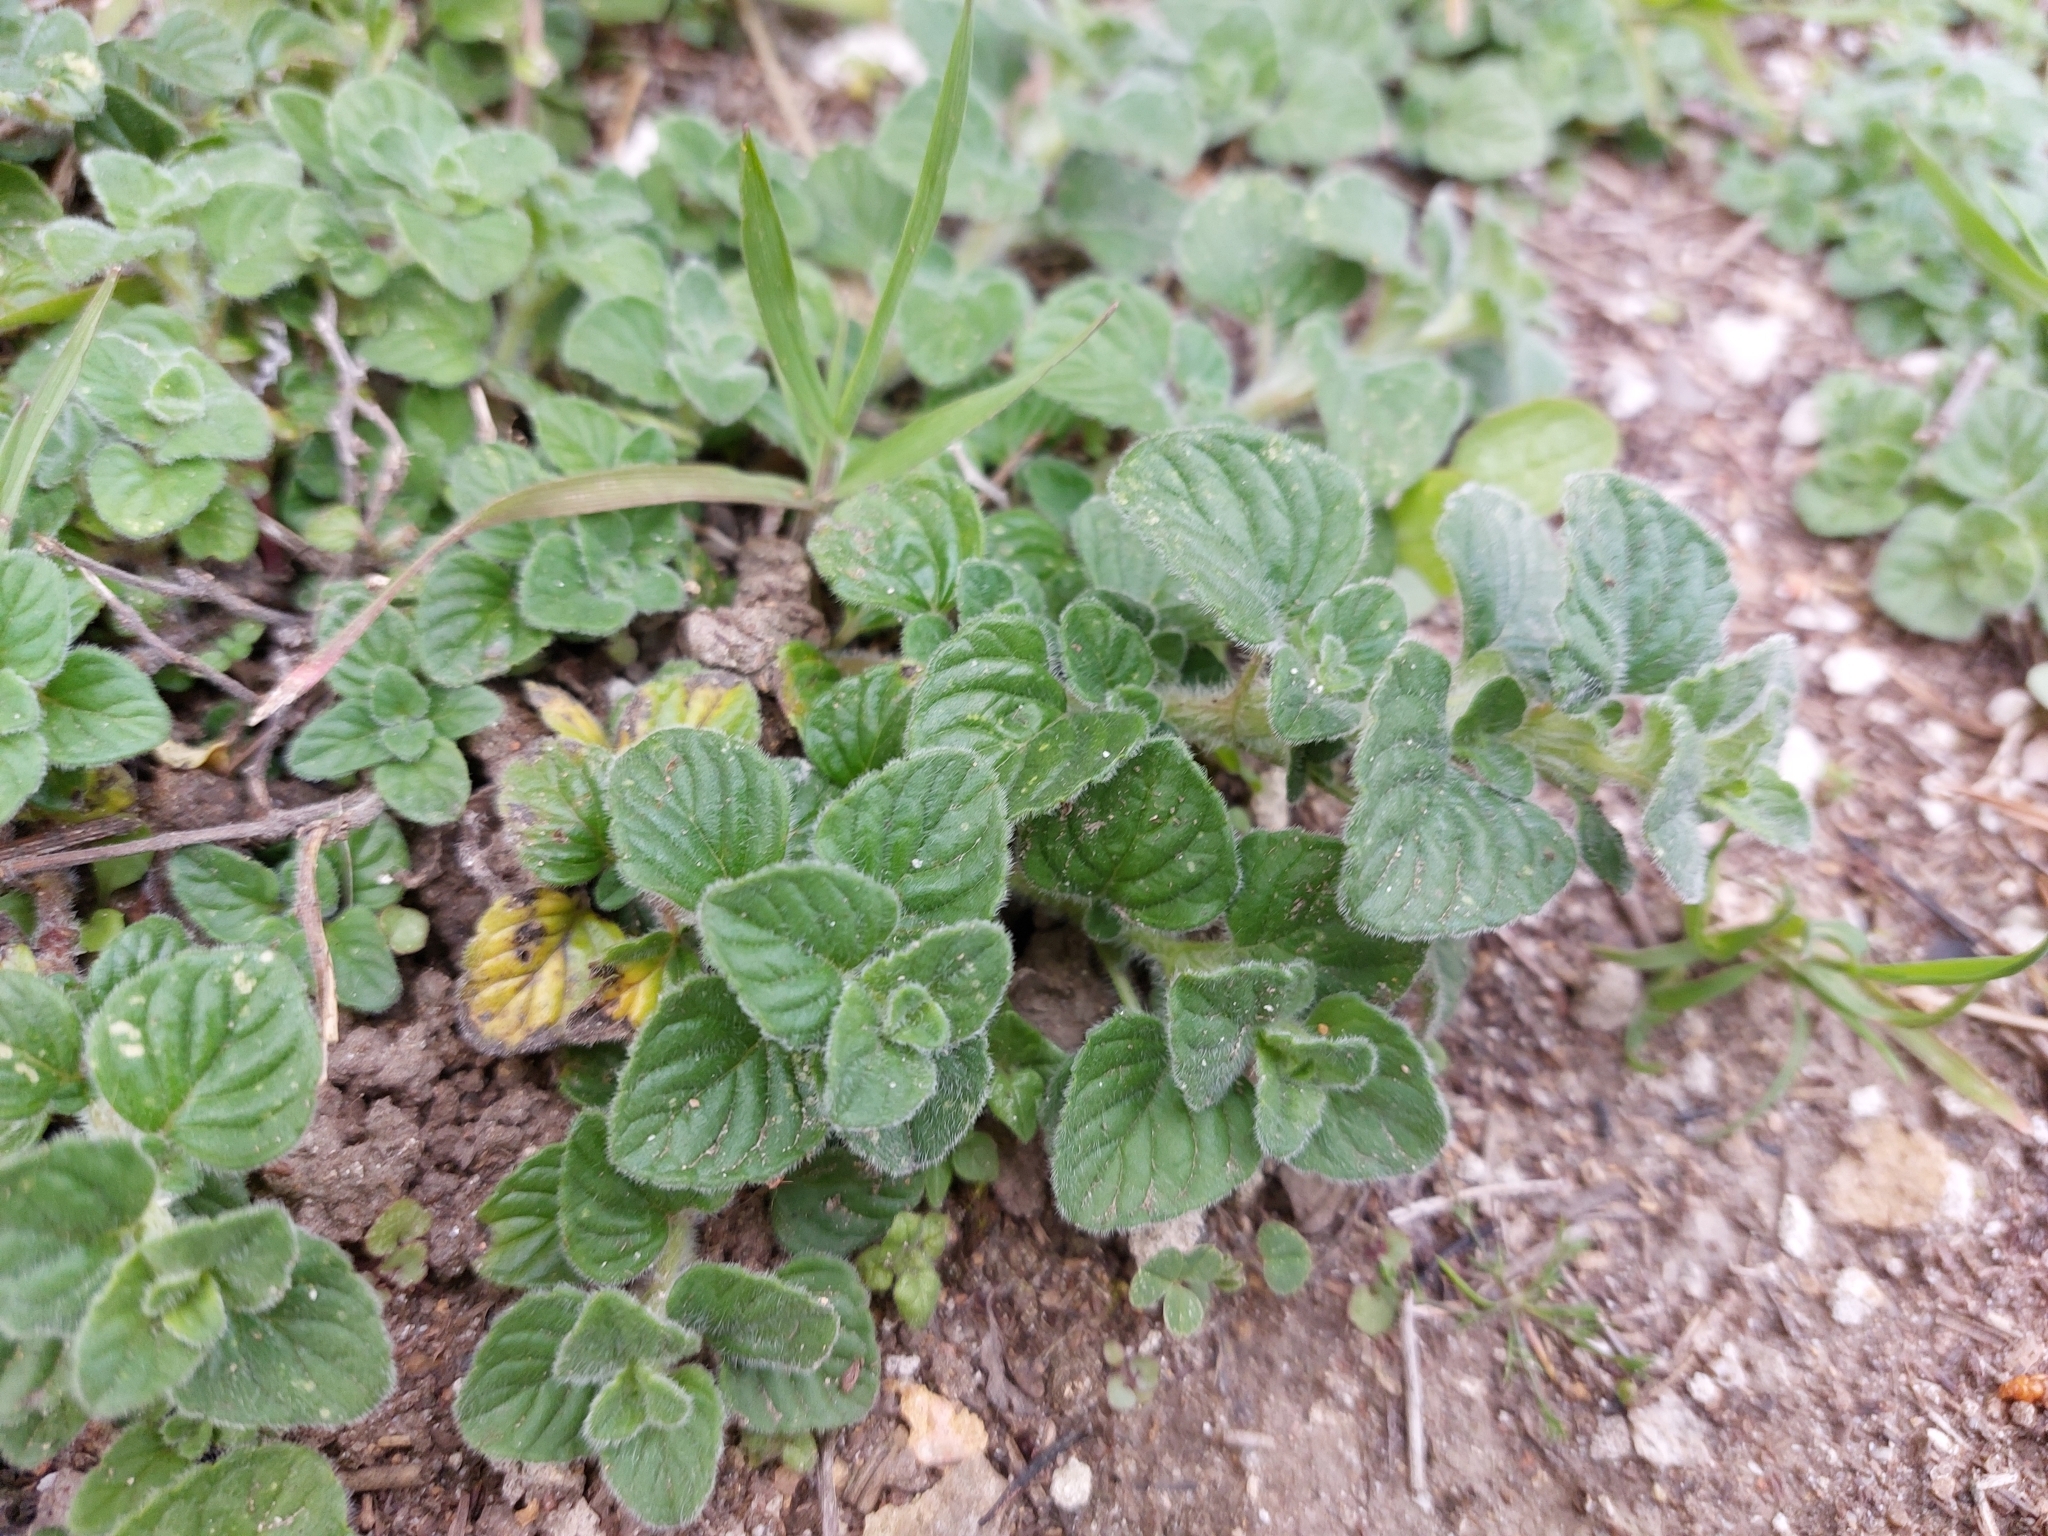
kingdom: Plantae
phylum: Tracheophyta
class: Magnoliopsida
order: Lamiales
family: Lamiaceae
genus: Clinopodium
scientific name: Clinopodium nepeta
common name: Lesser calamint
